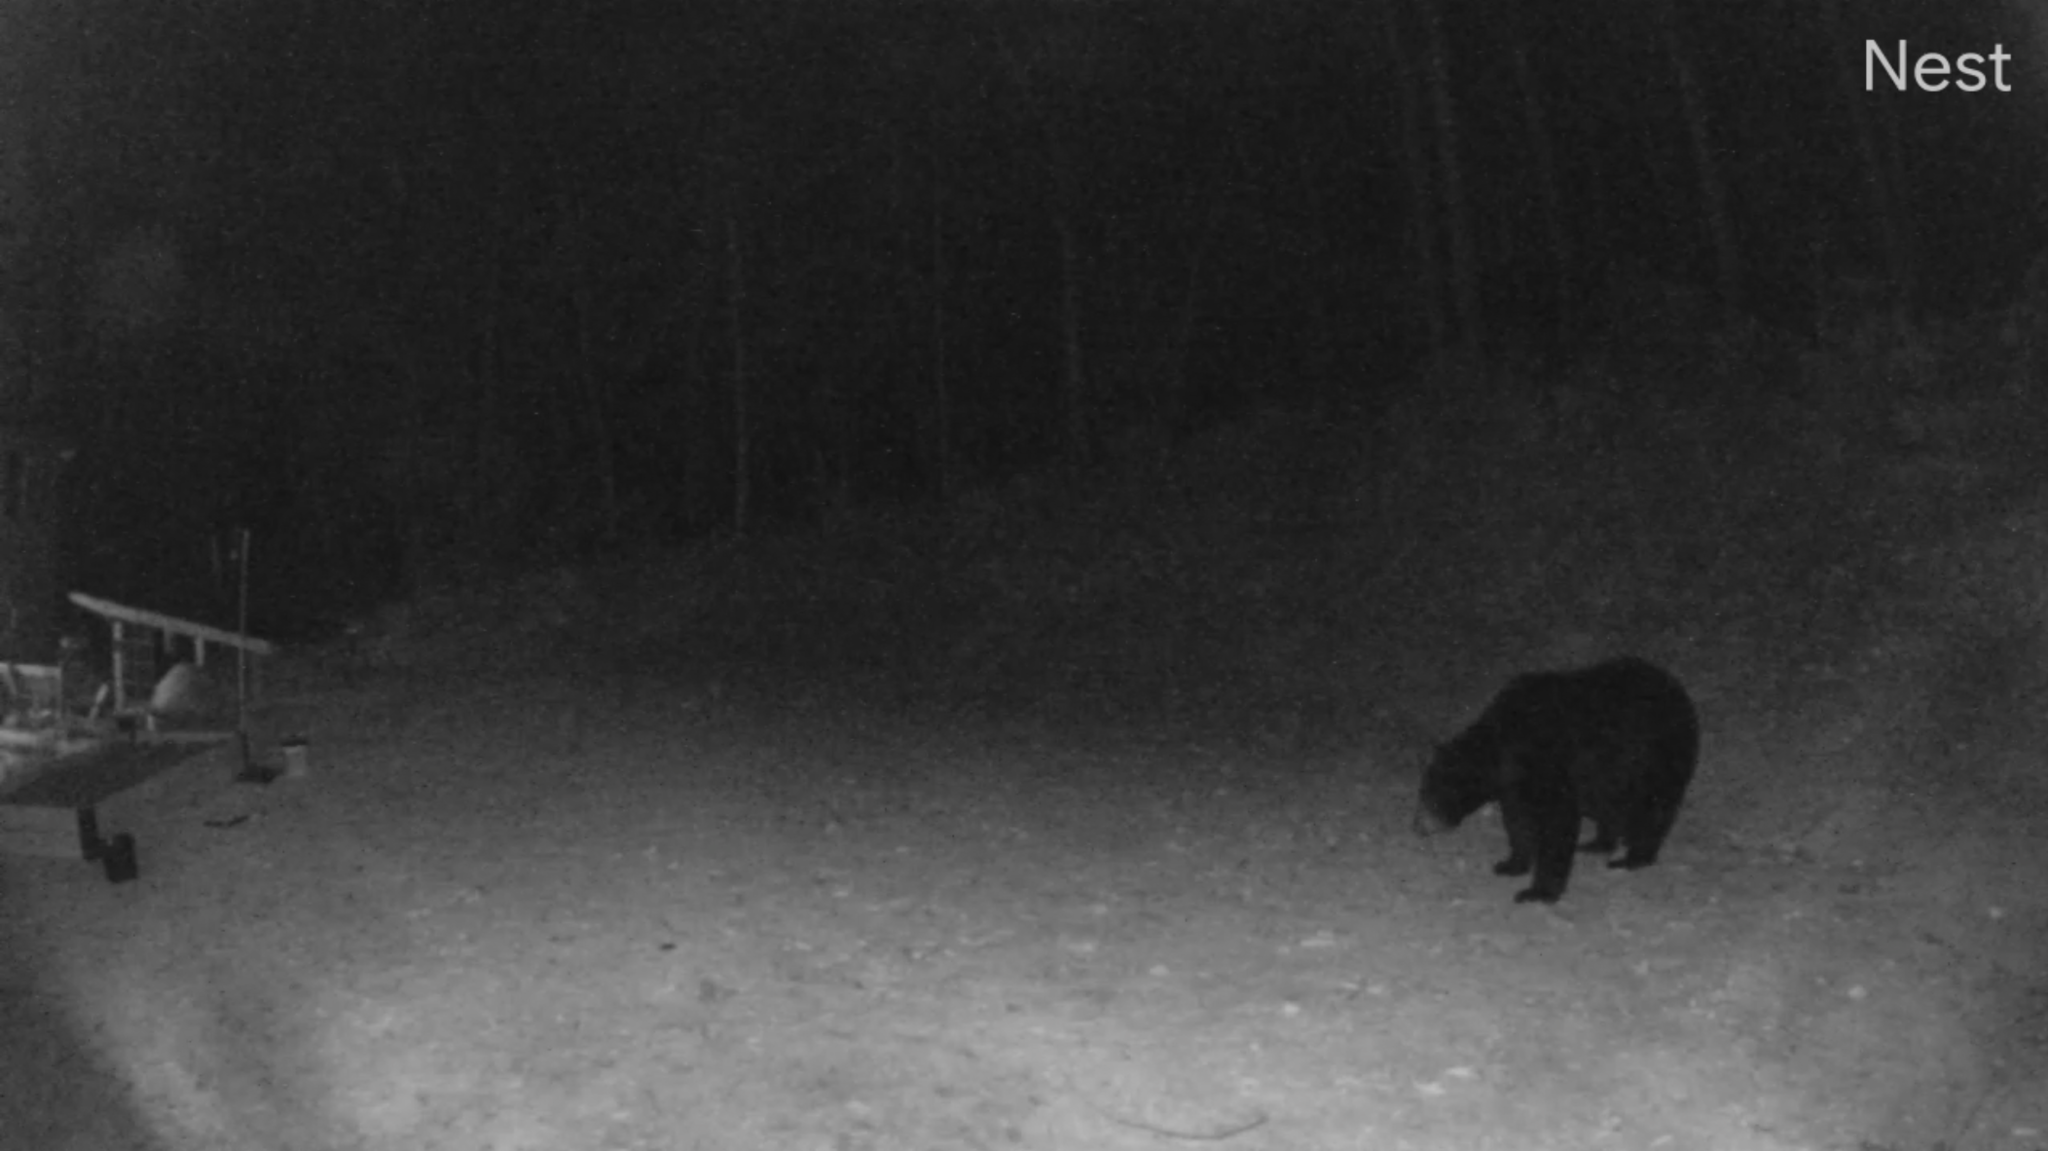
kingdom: Animalia
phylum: Chordata
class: Mammalia
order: Carnivora
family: Ursidae
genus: Ursus
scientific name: Ursus americanus
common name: American black bear
